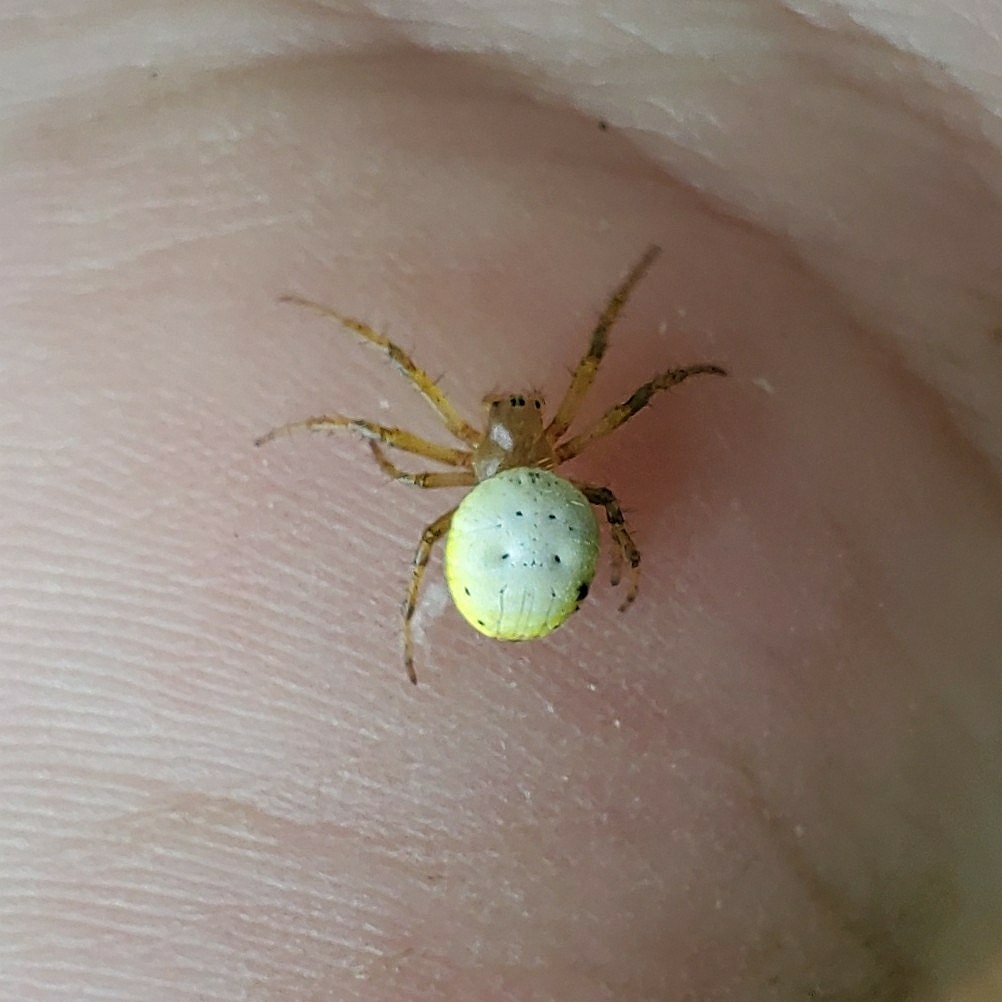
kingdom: Animalia
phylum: Arthropoda
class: Arachnida
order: Araneae
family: Araneidae
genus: Araniella
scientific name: Araniella displicata
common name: Sixspotted orb weaver
